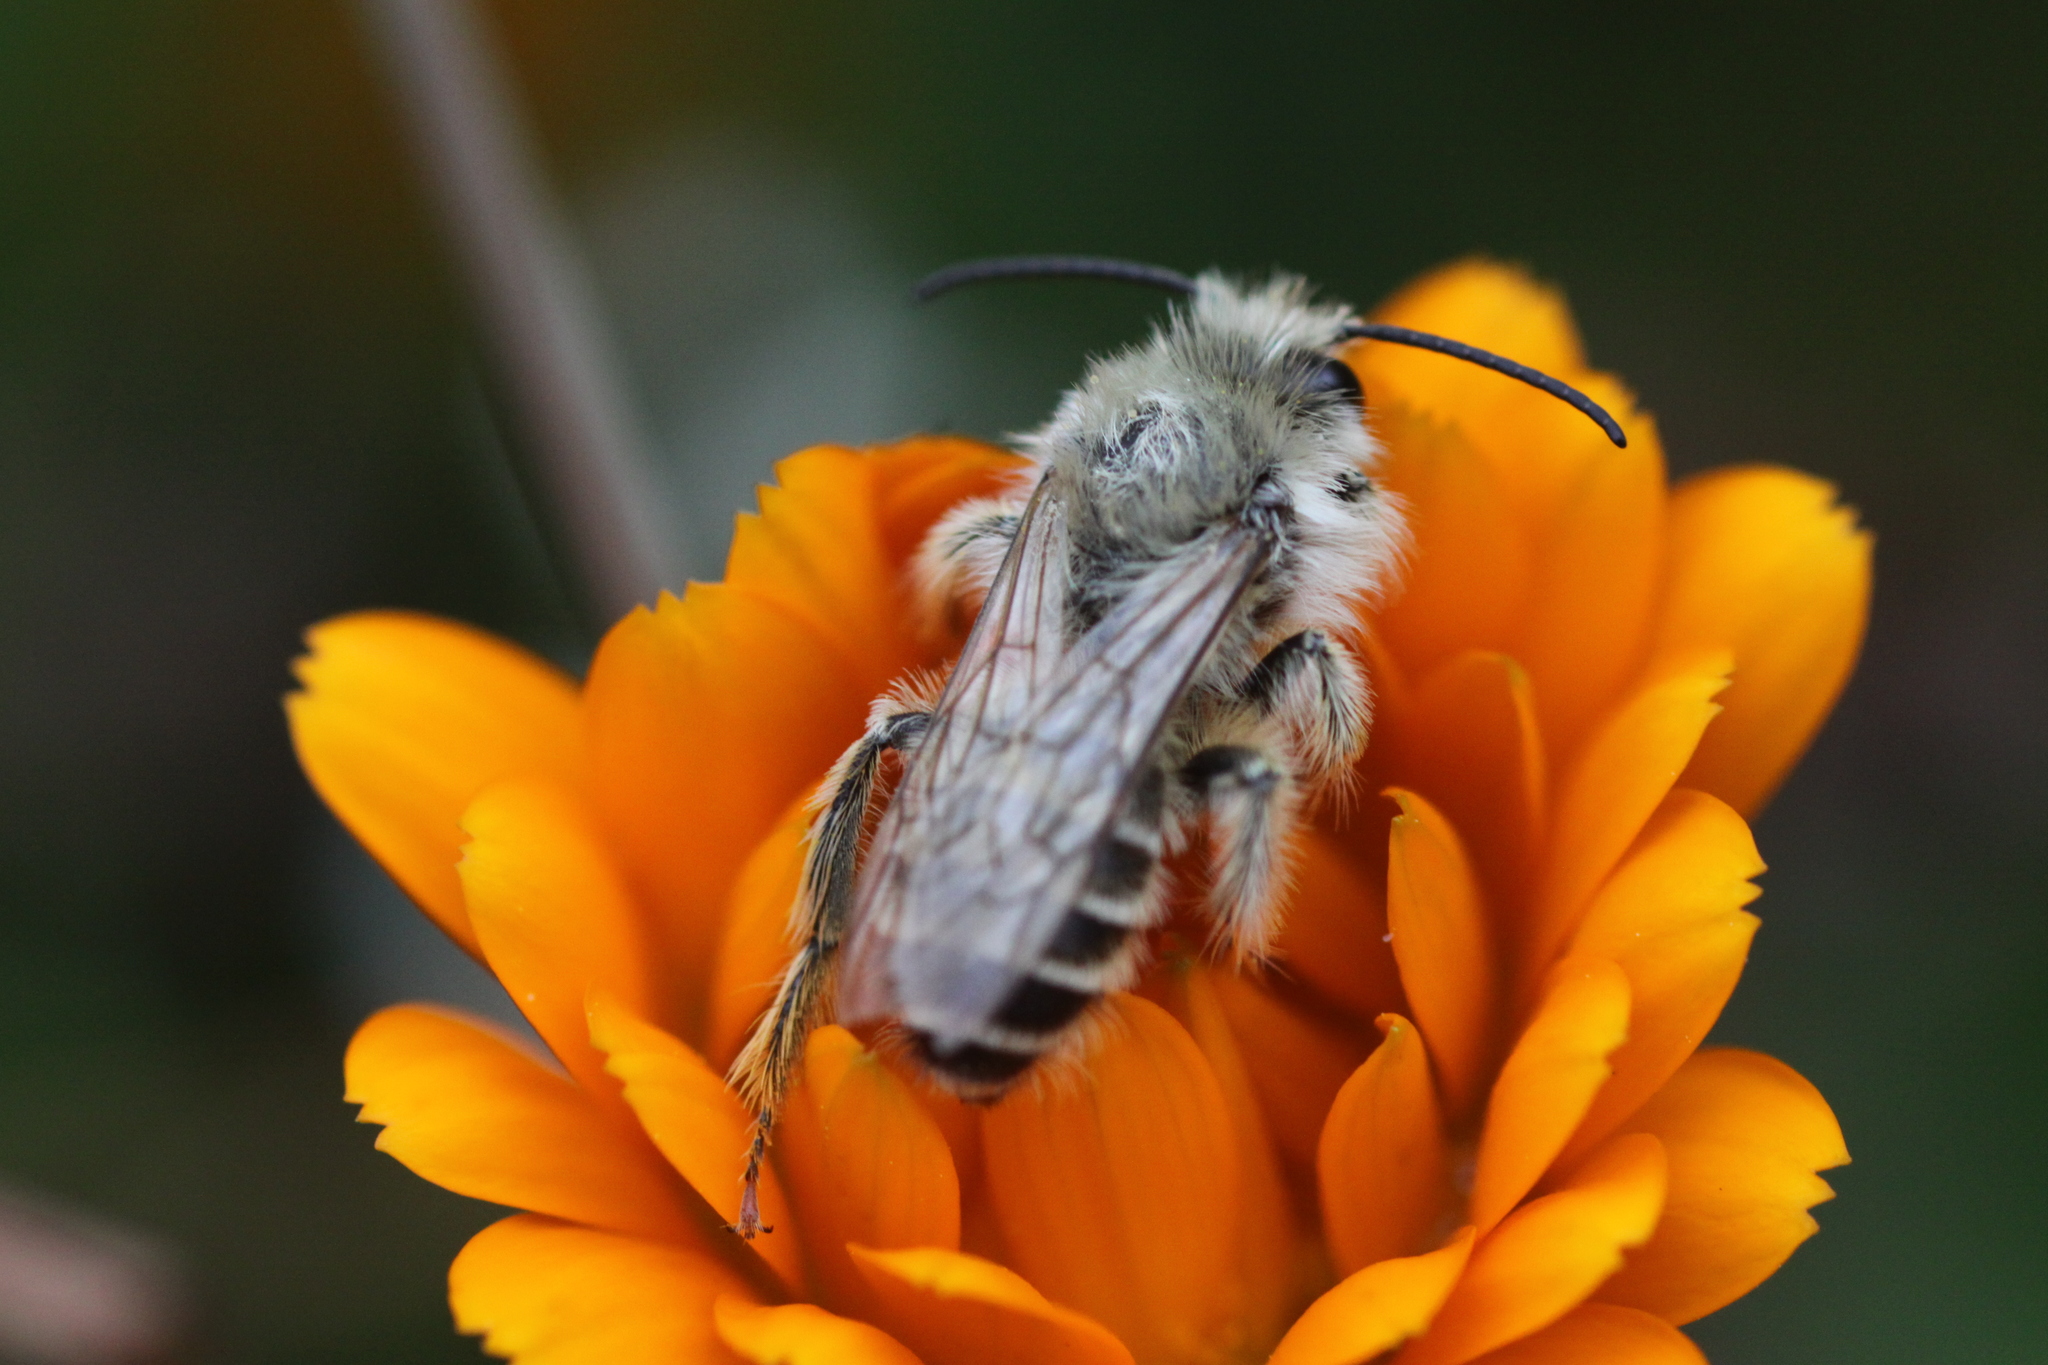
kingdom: Animalia
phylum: Arthropoda
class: Insecta
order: Hymenoptera
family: Melittidae
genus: Dasypoda
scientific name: Dasypoda hirtipes
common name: Pantaloon bee
